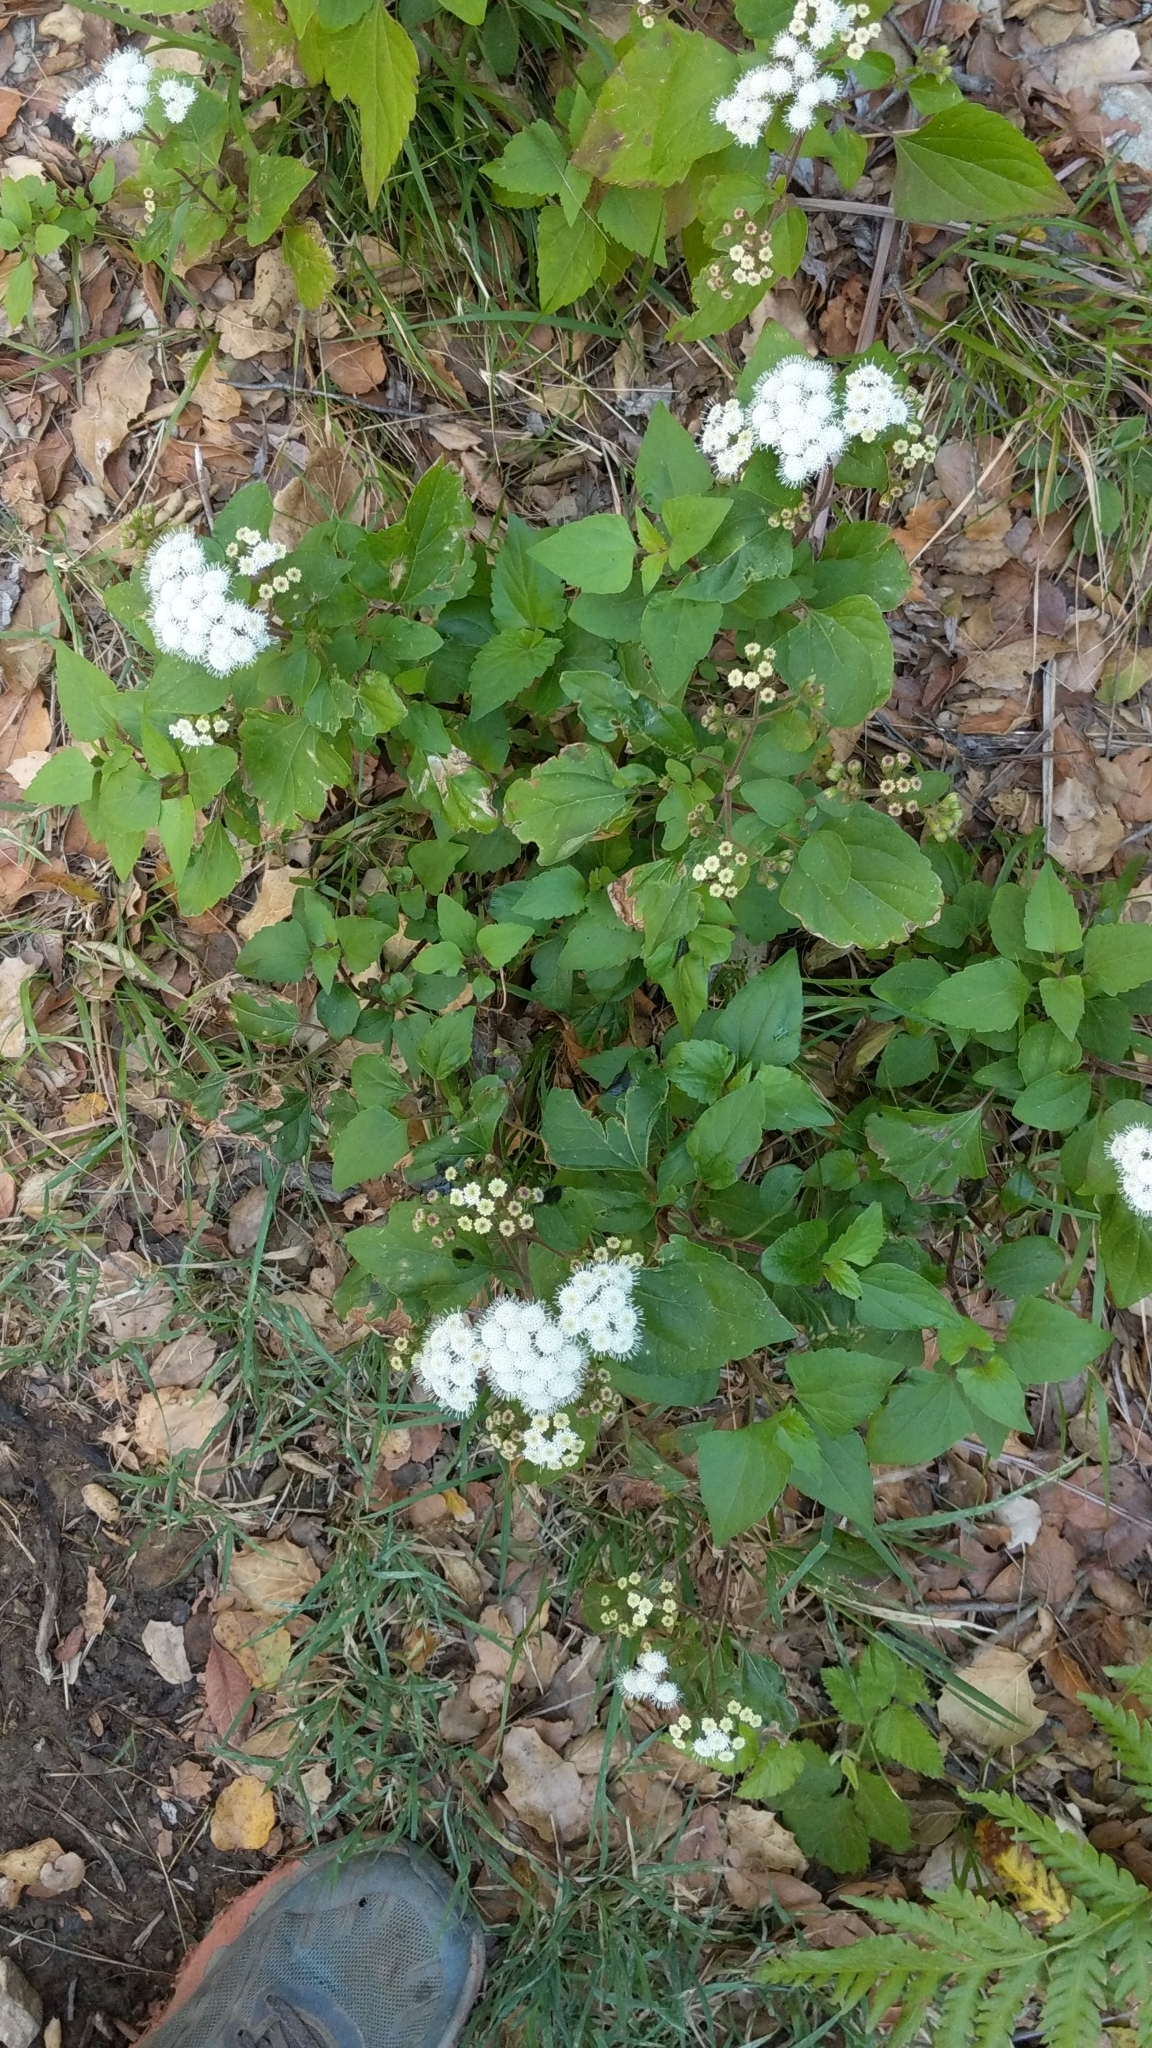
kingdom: Plantae
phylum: Tracheophyta
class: Magnoliopsida
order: Asterales
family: Asteraceae
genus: Ageratina
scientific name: Ageratina adenophora
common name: Sticky snakeroot
